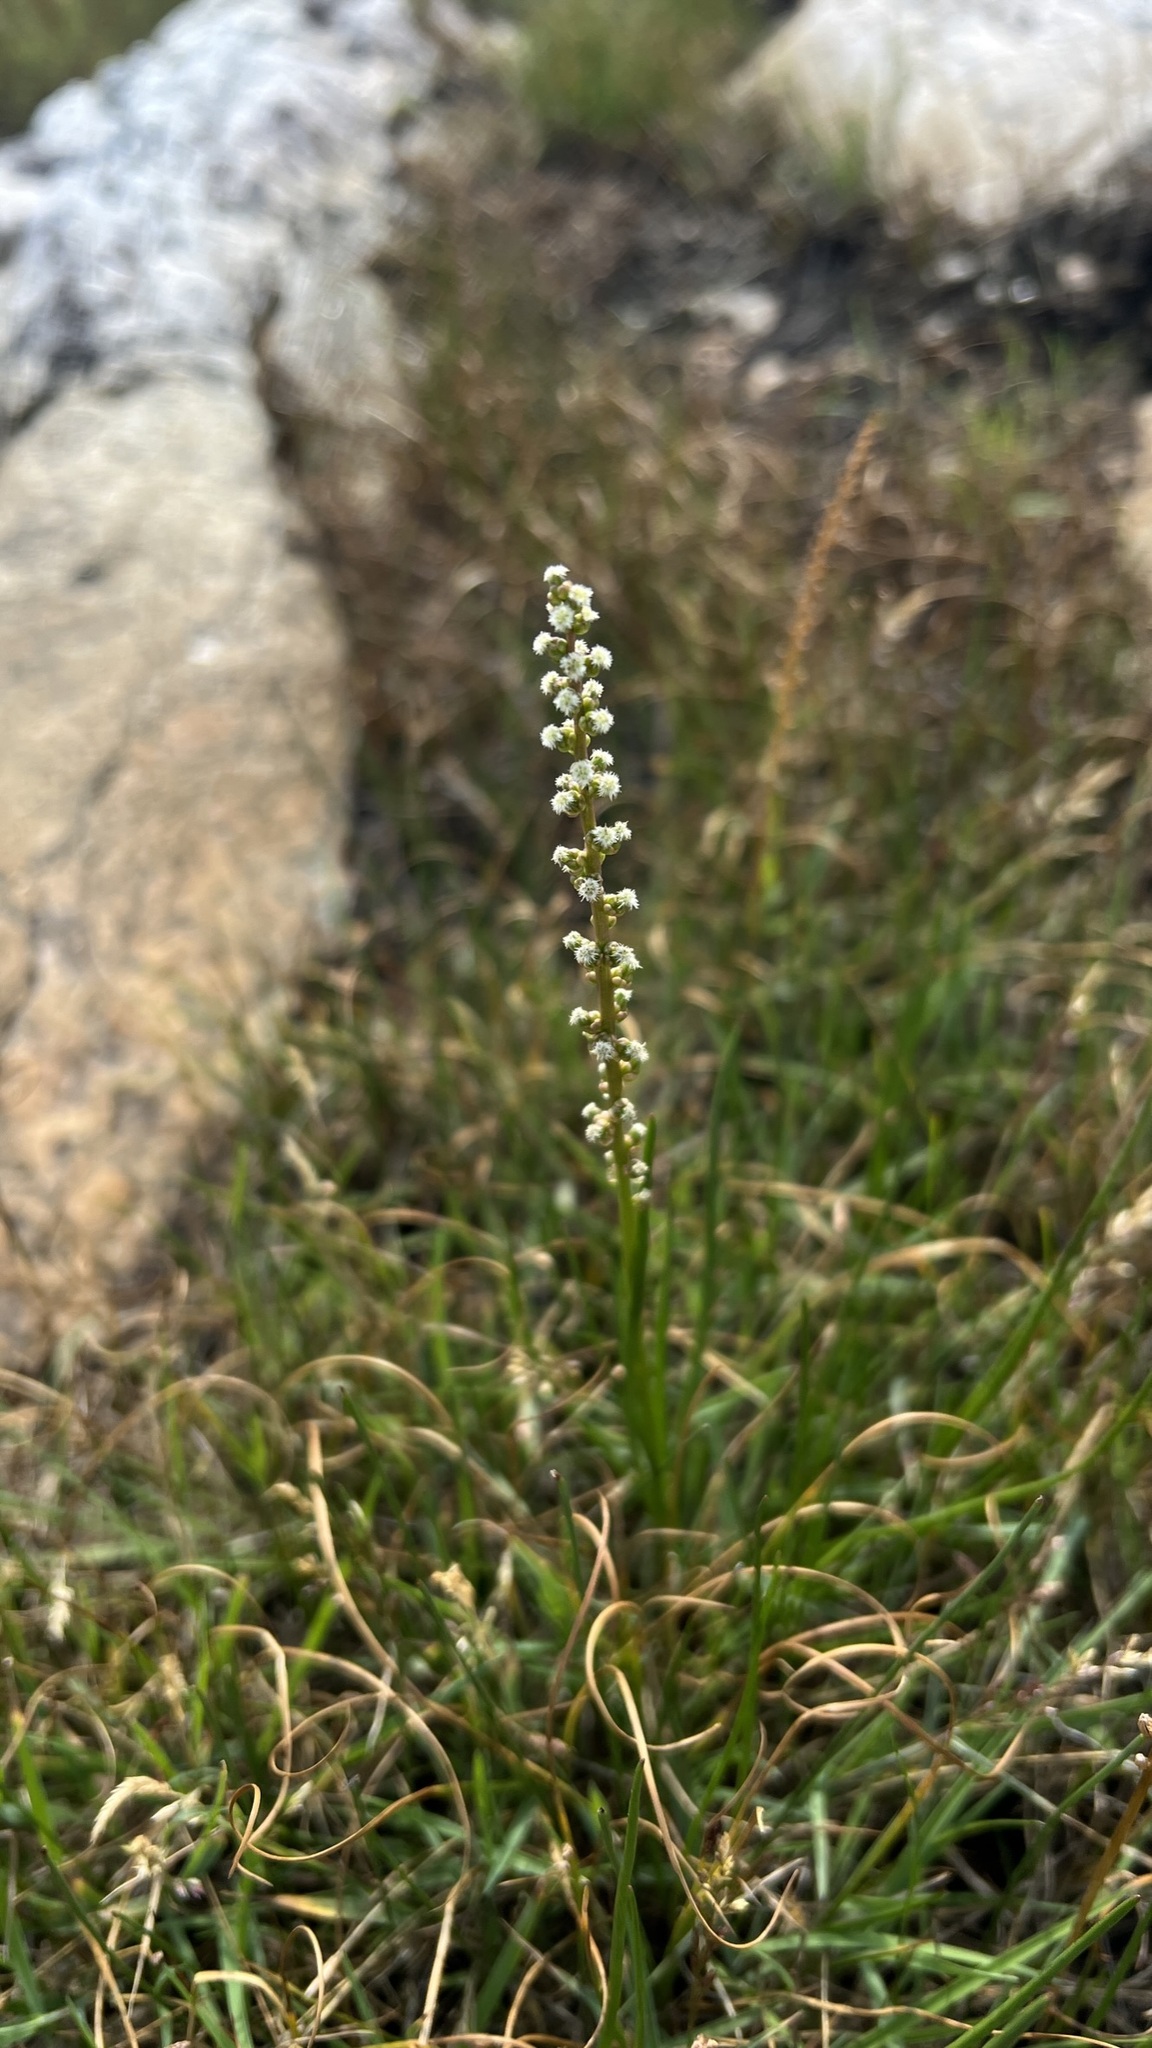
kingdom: Plantae
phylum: Tracheophyta
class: Liliopsida
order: Alismatales
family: Juncaginaceae
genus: Triglochin
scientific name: Triglochin maritima
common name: Sea arrowgrass
